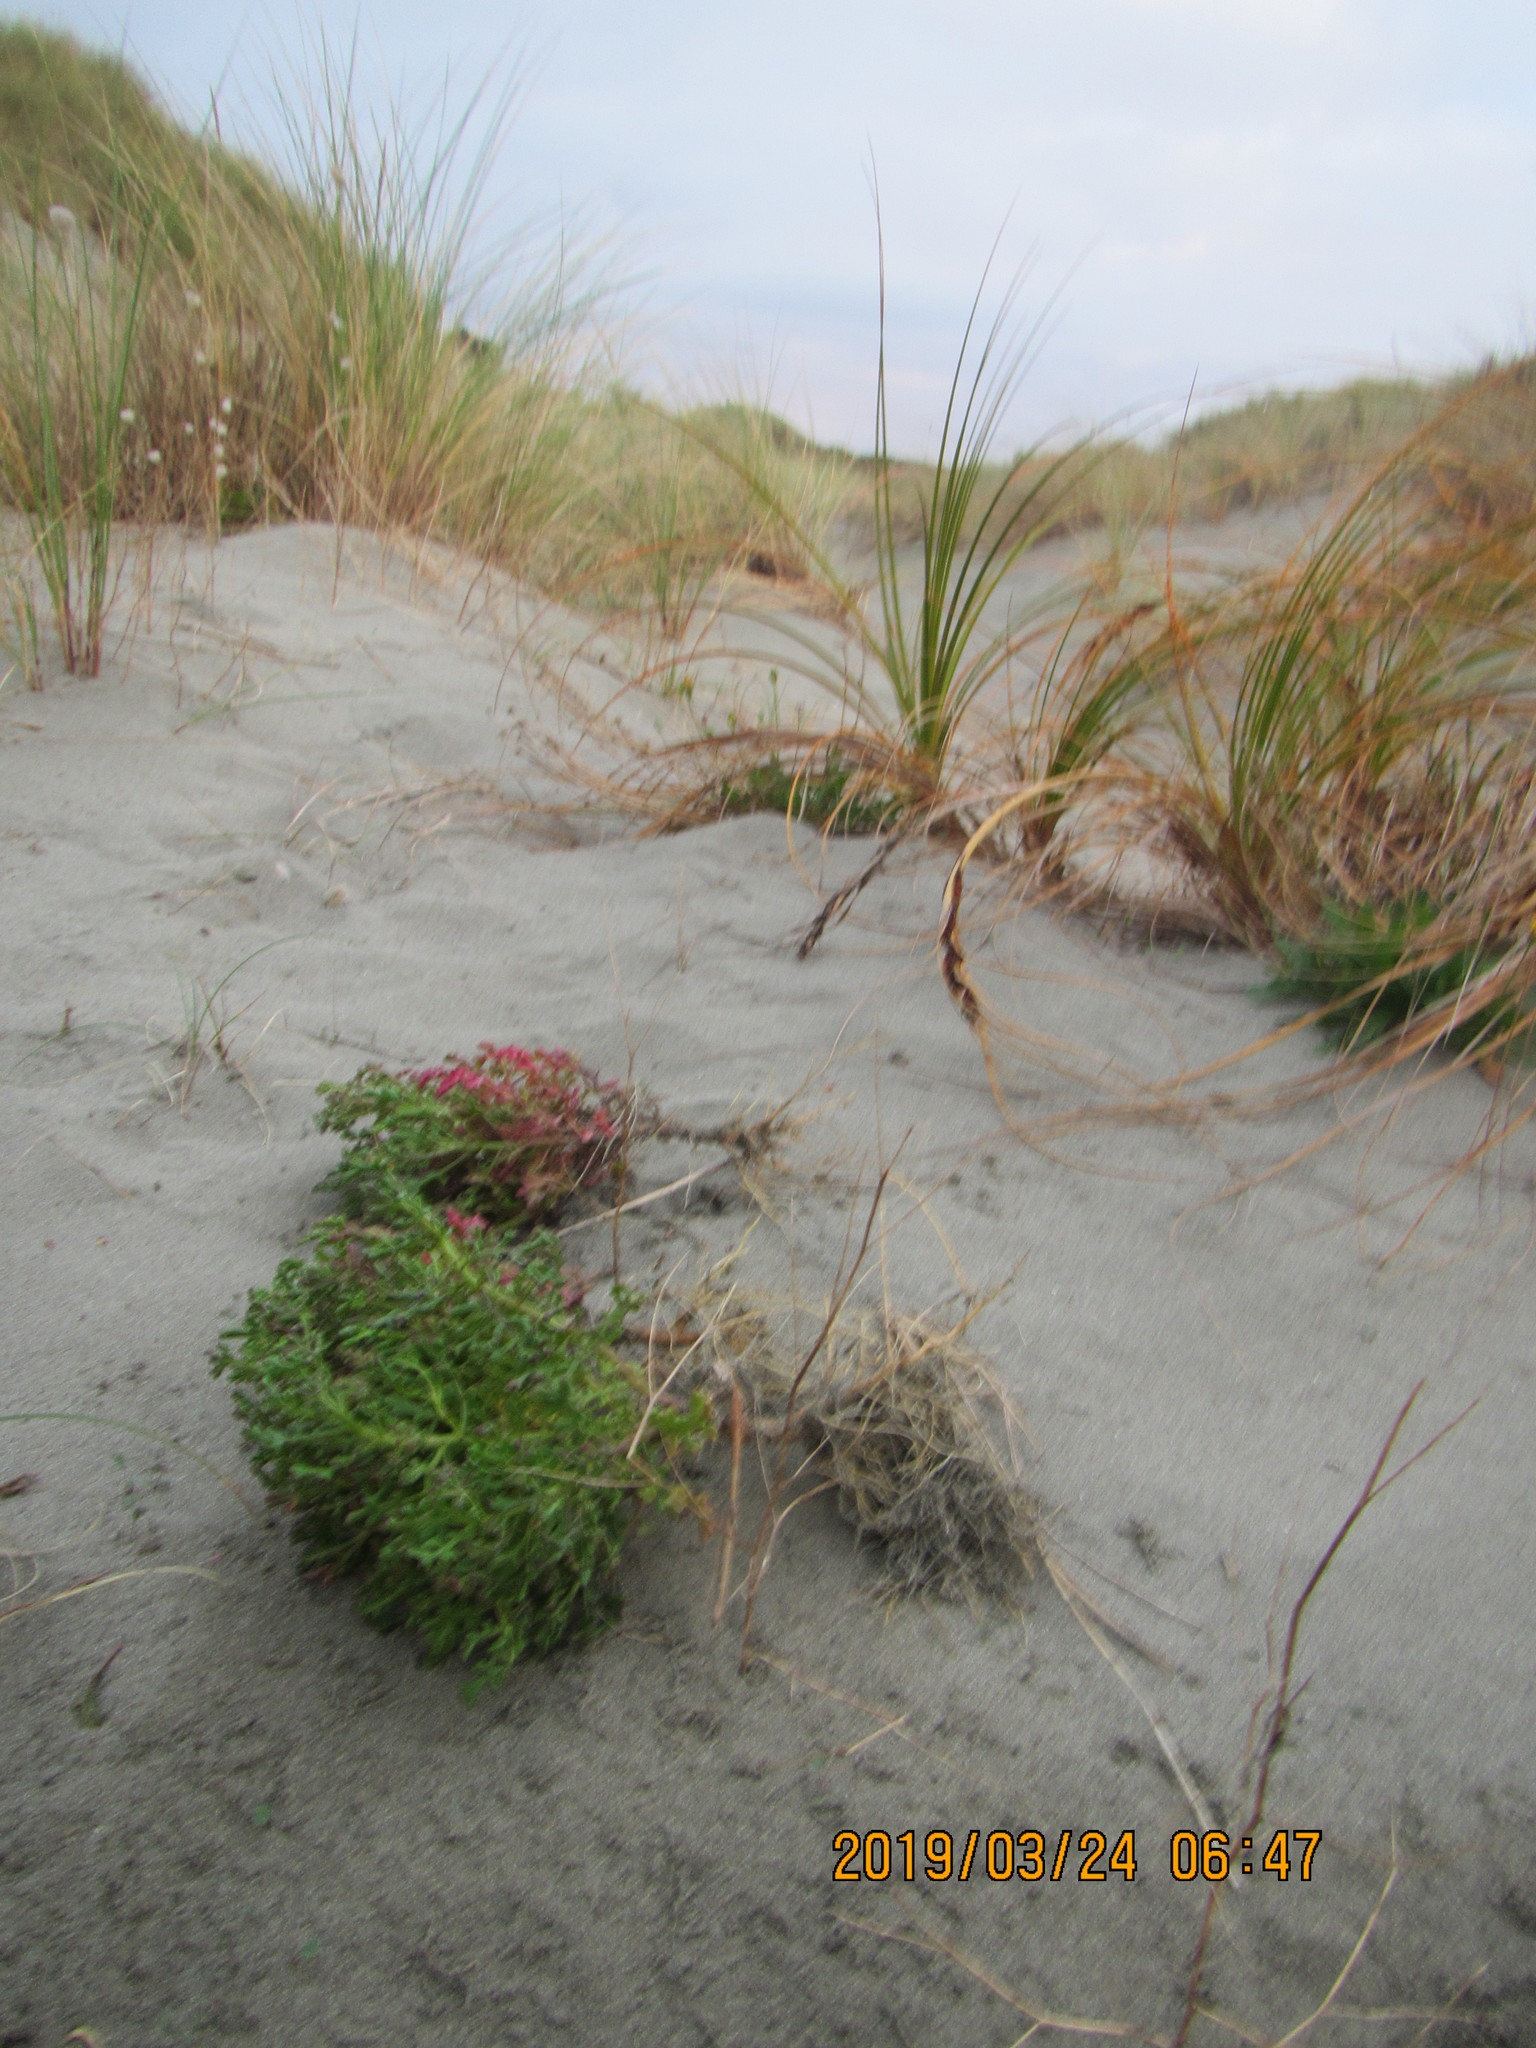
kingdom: Plantae
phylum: Tracheophyta
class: Magnoliopsida
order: Asterales
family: Asteraceae
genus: Senecio
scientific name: Senecio elegans
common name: Purple groundsel
